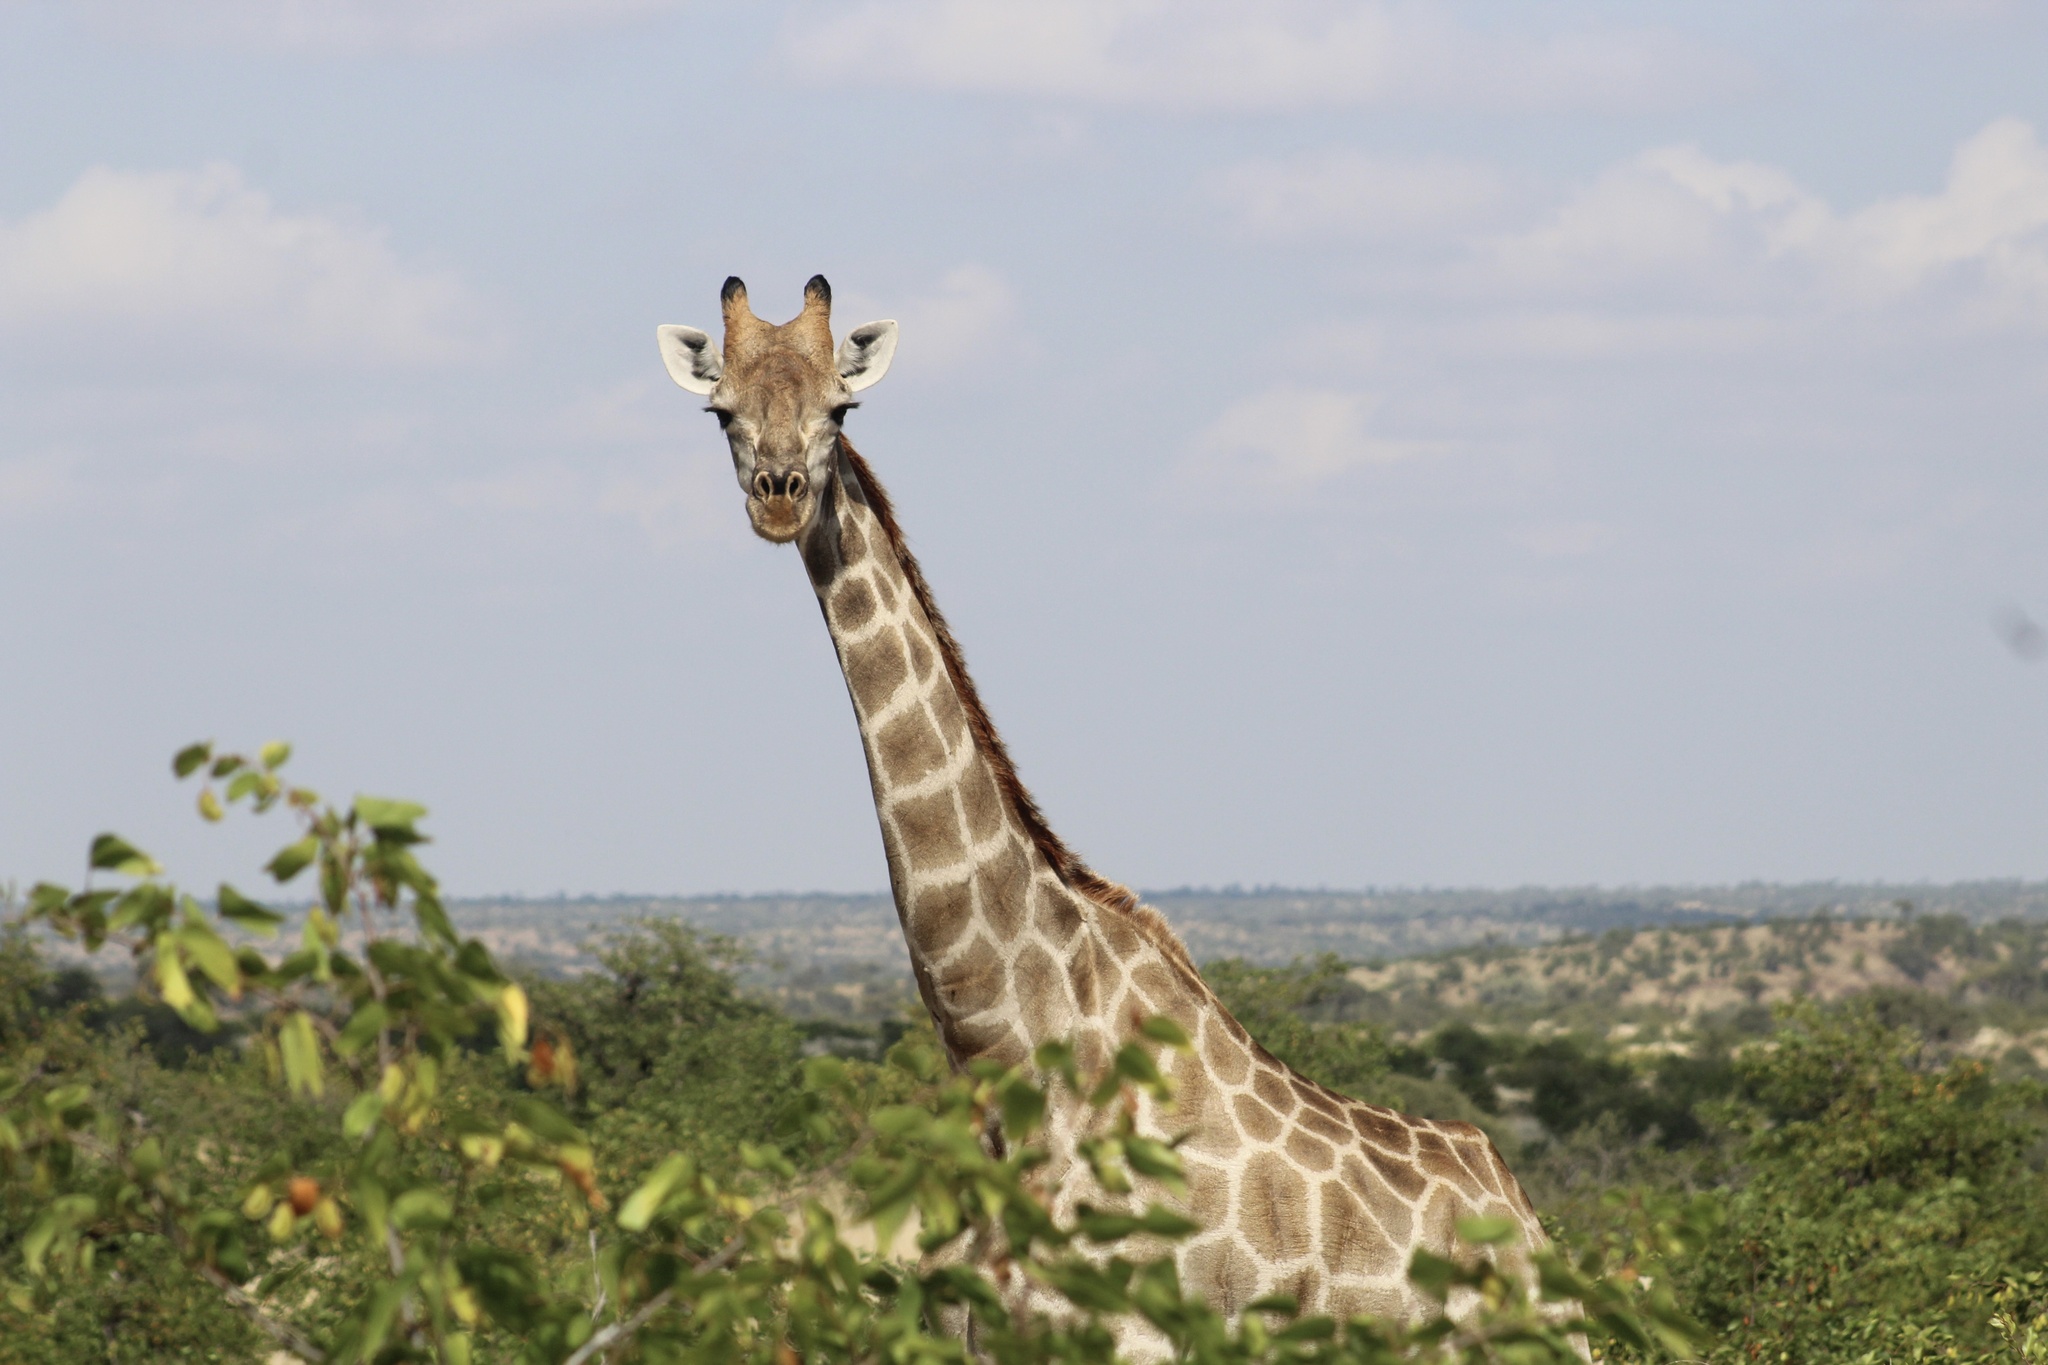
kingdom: Animalia
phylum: Chordata
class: Mammalia
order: Artiodactyla
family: Giraffidae
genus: Giraffa
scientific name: Giraffa giraffa
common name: Southern giraffe
